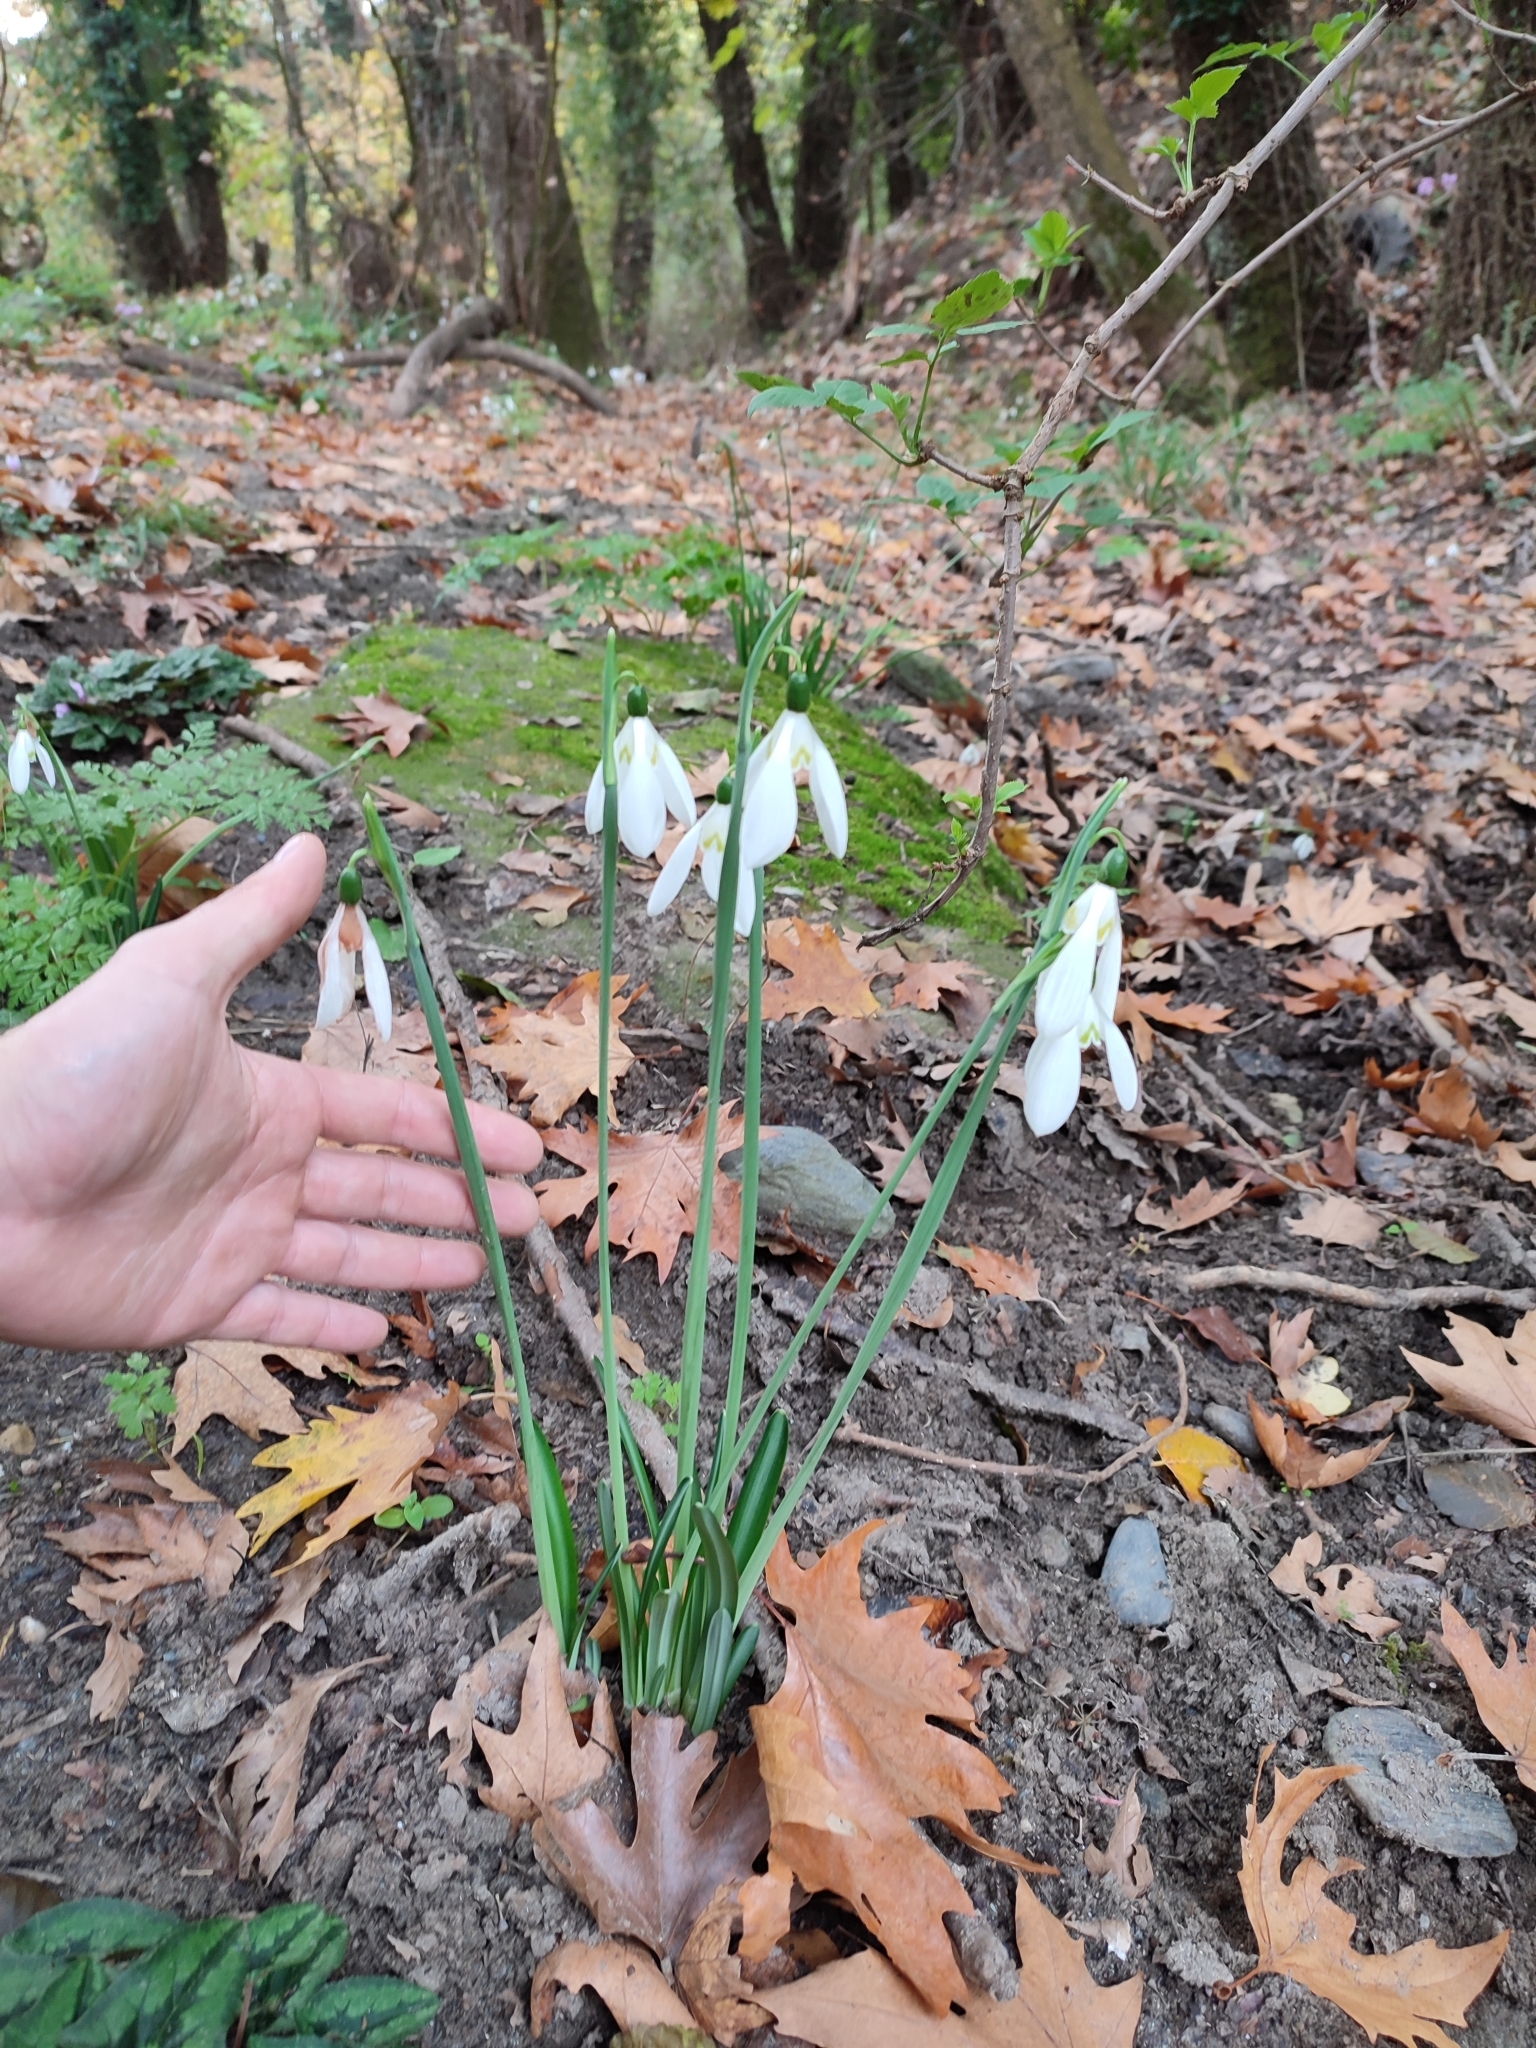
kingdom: Plantae
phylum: Tracheophyta
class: Liliopsida
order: Asparagales
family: Amaryllidaceae
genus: Galanthus
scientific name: Galanthus reginae-olgae
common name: Queen olga's snowdrop
